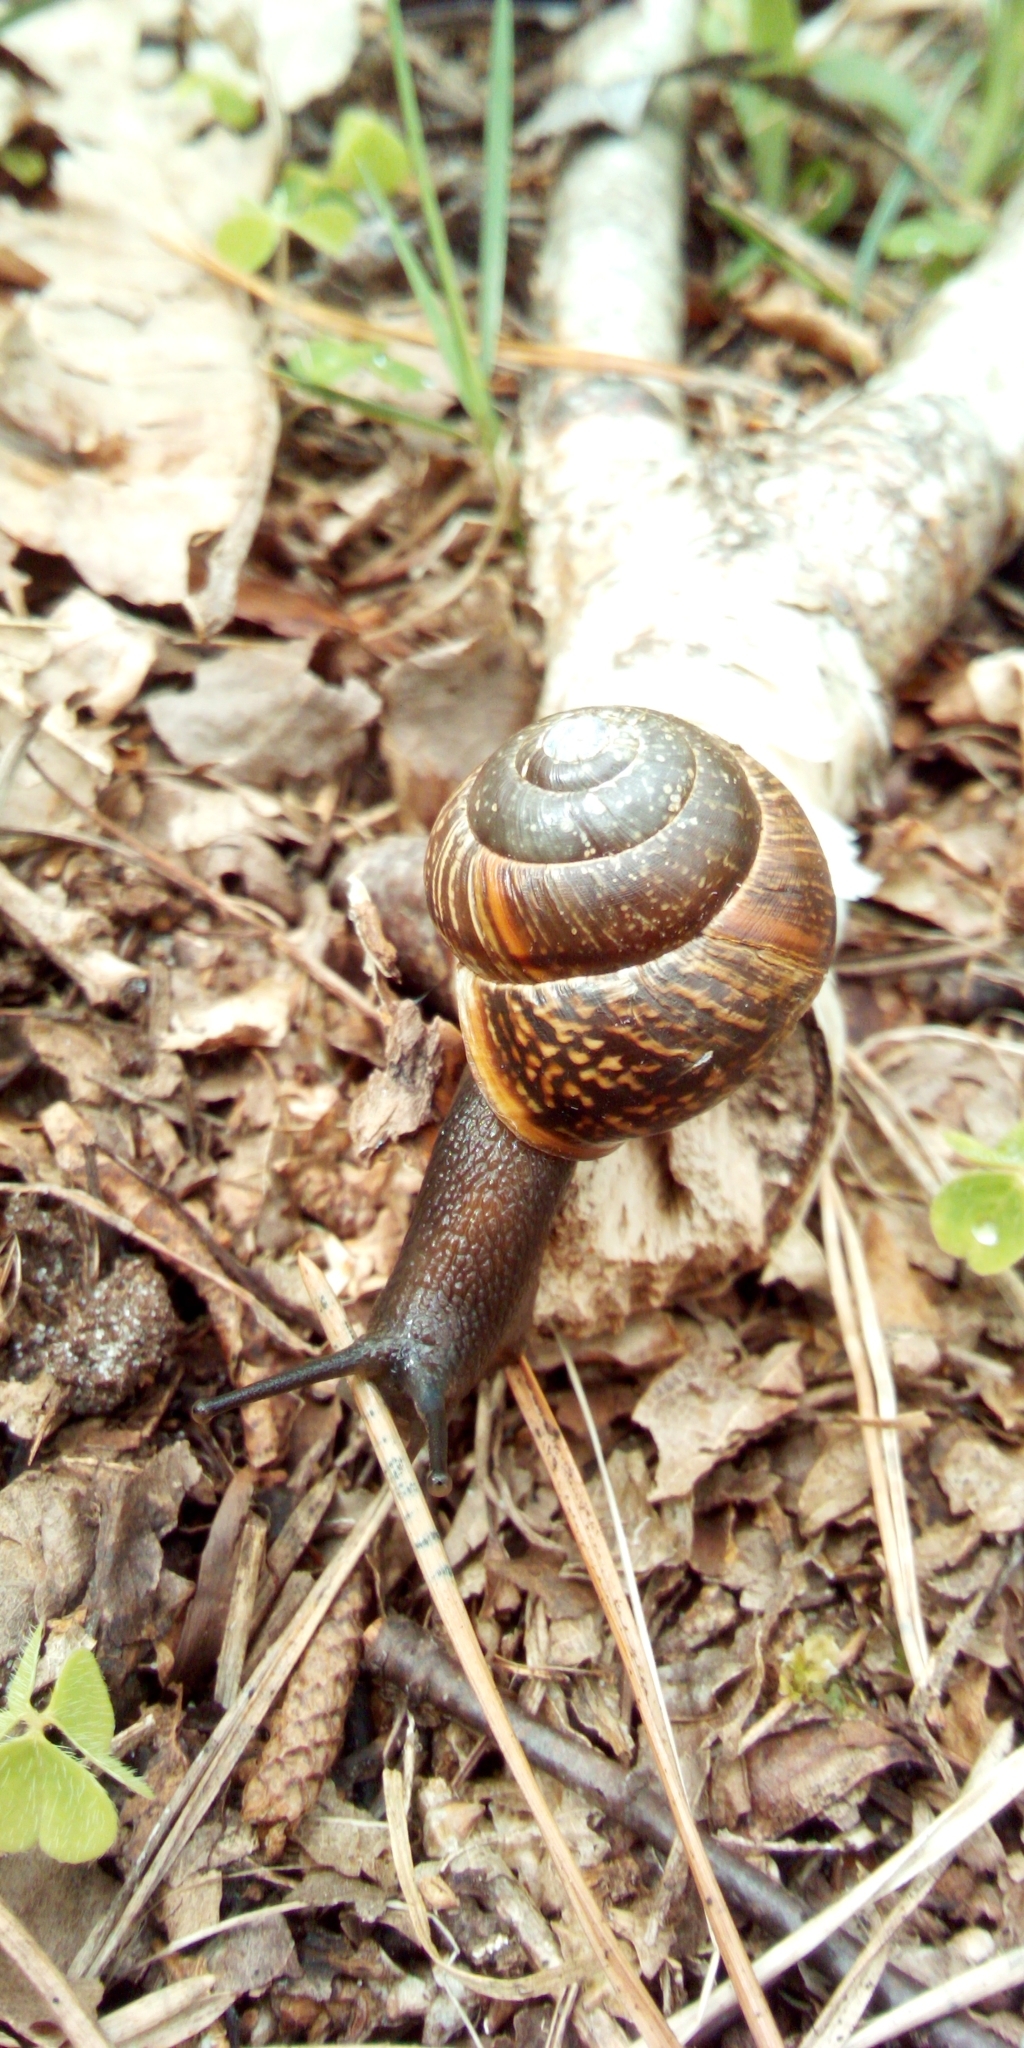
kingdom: Animalia
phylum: Mollusca
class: Gastropoda
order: Stylommatophora
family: Helicidae
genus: Arianta
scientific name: Arianta arbustorum
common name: Copse snail
